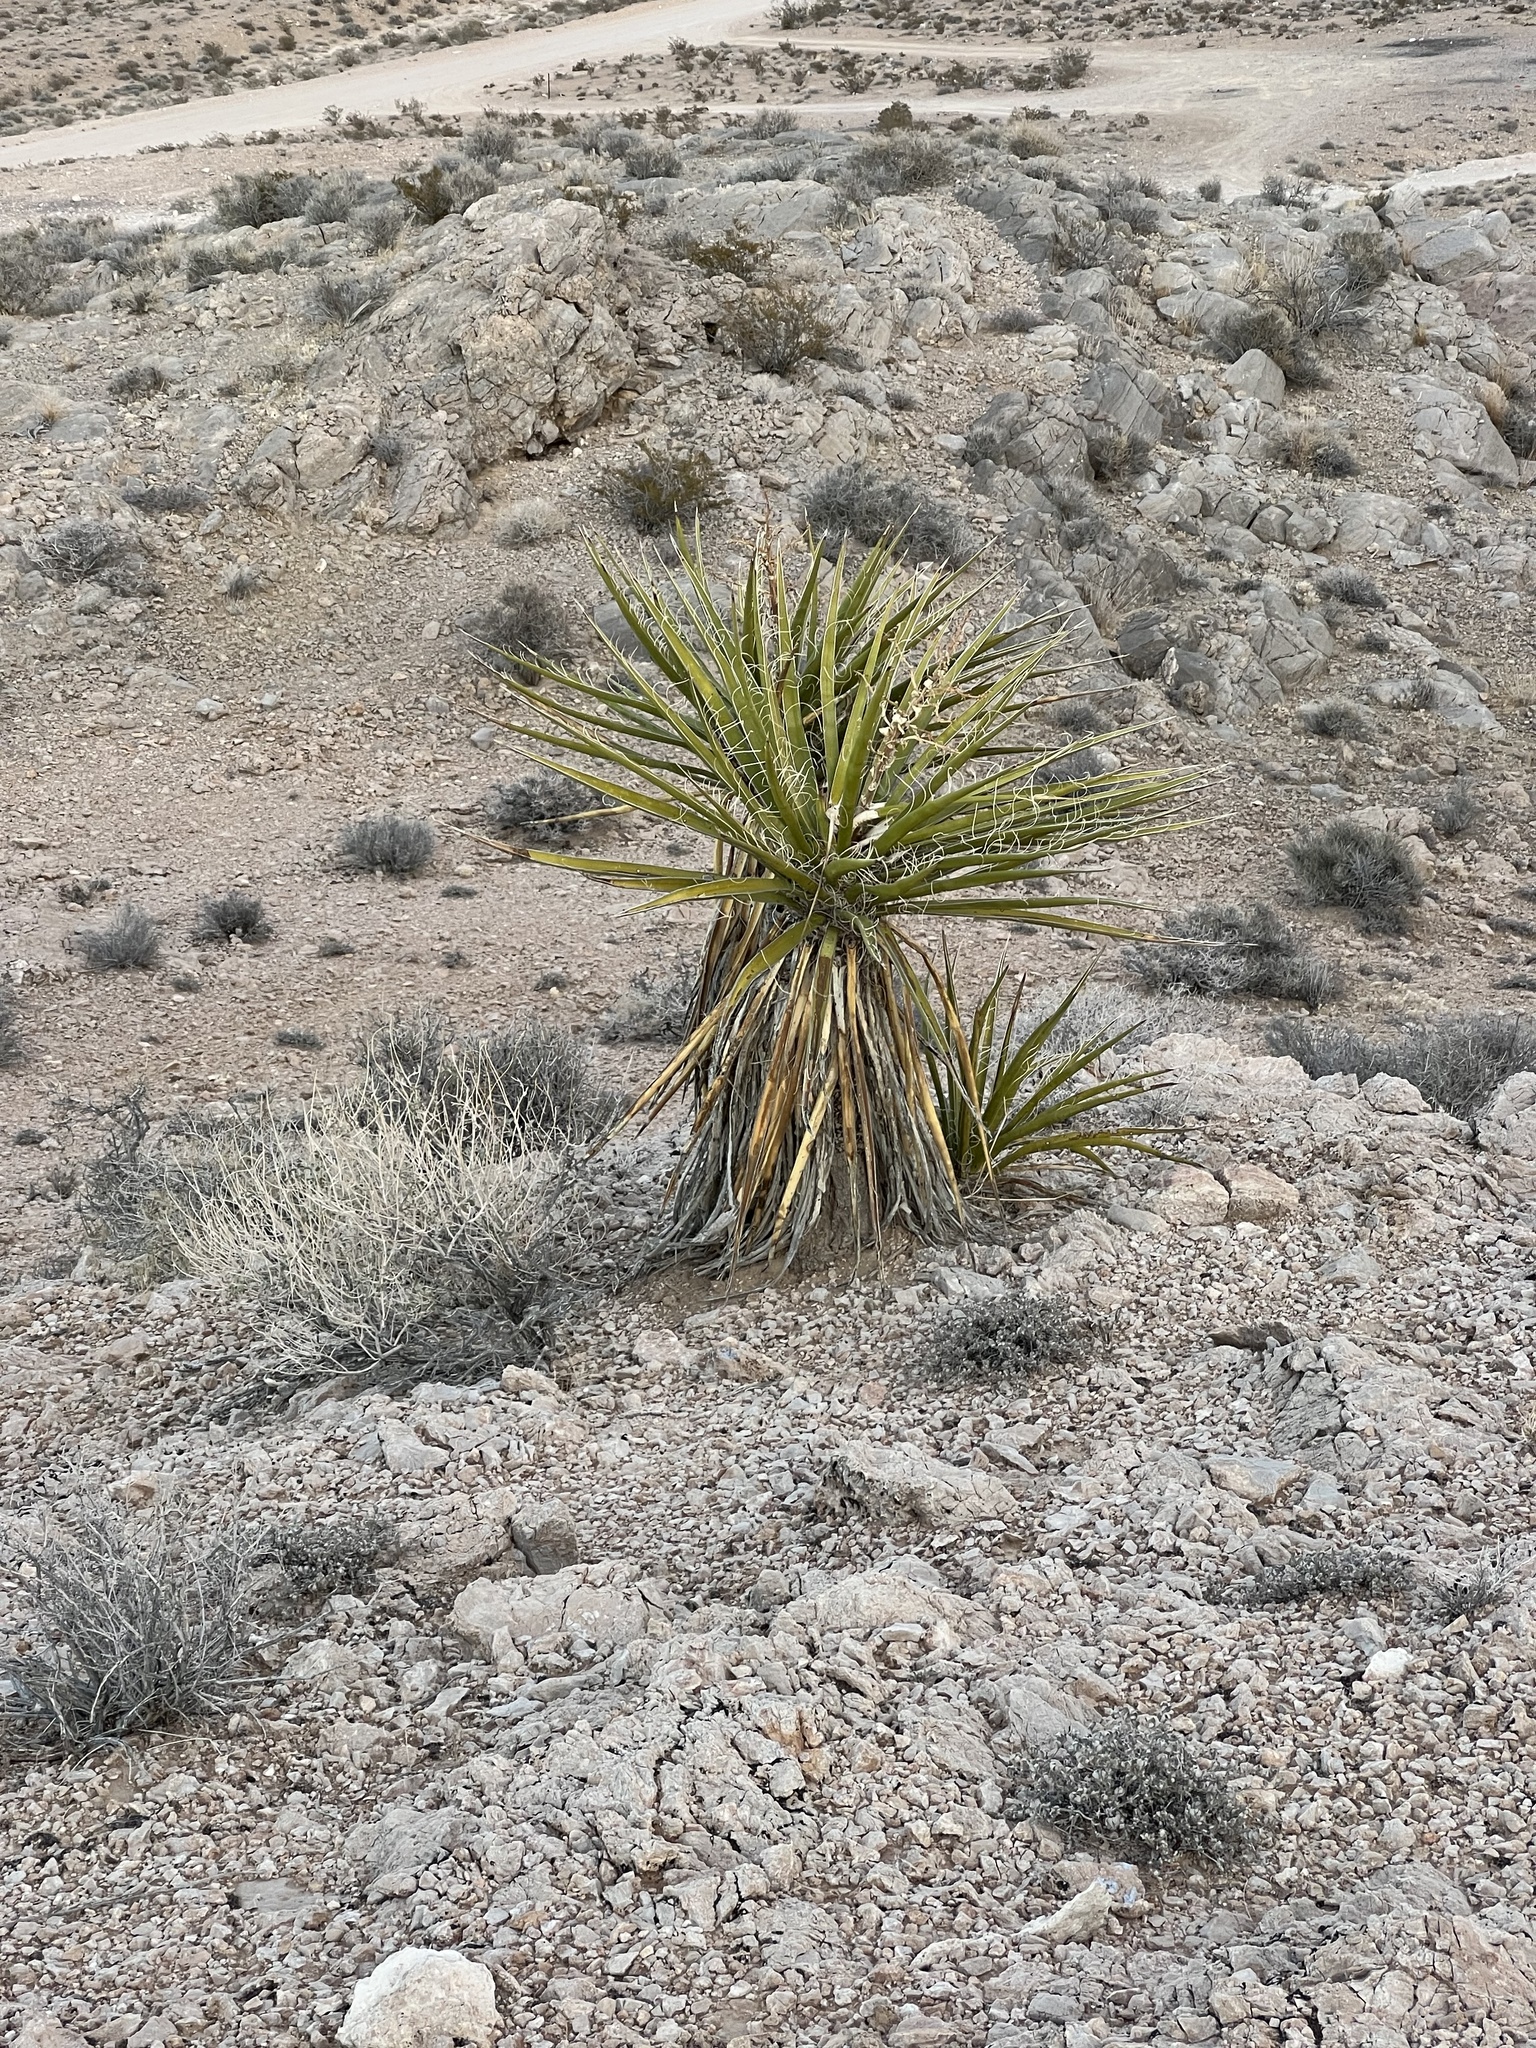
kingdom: Plantae
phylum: Tracheophyta
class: Liliopsida
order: Asparagales
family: Asparagaceae
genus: Yucca
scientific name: Yucca schidigera
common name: Mojave yucca
